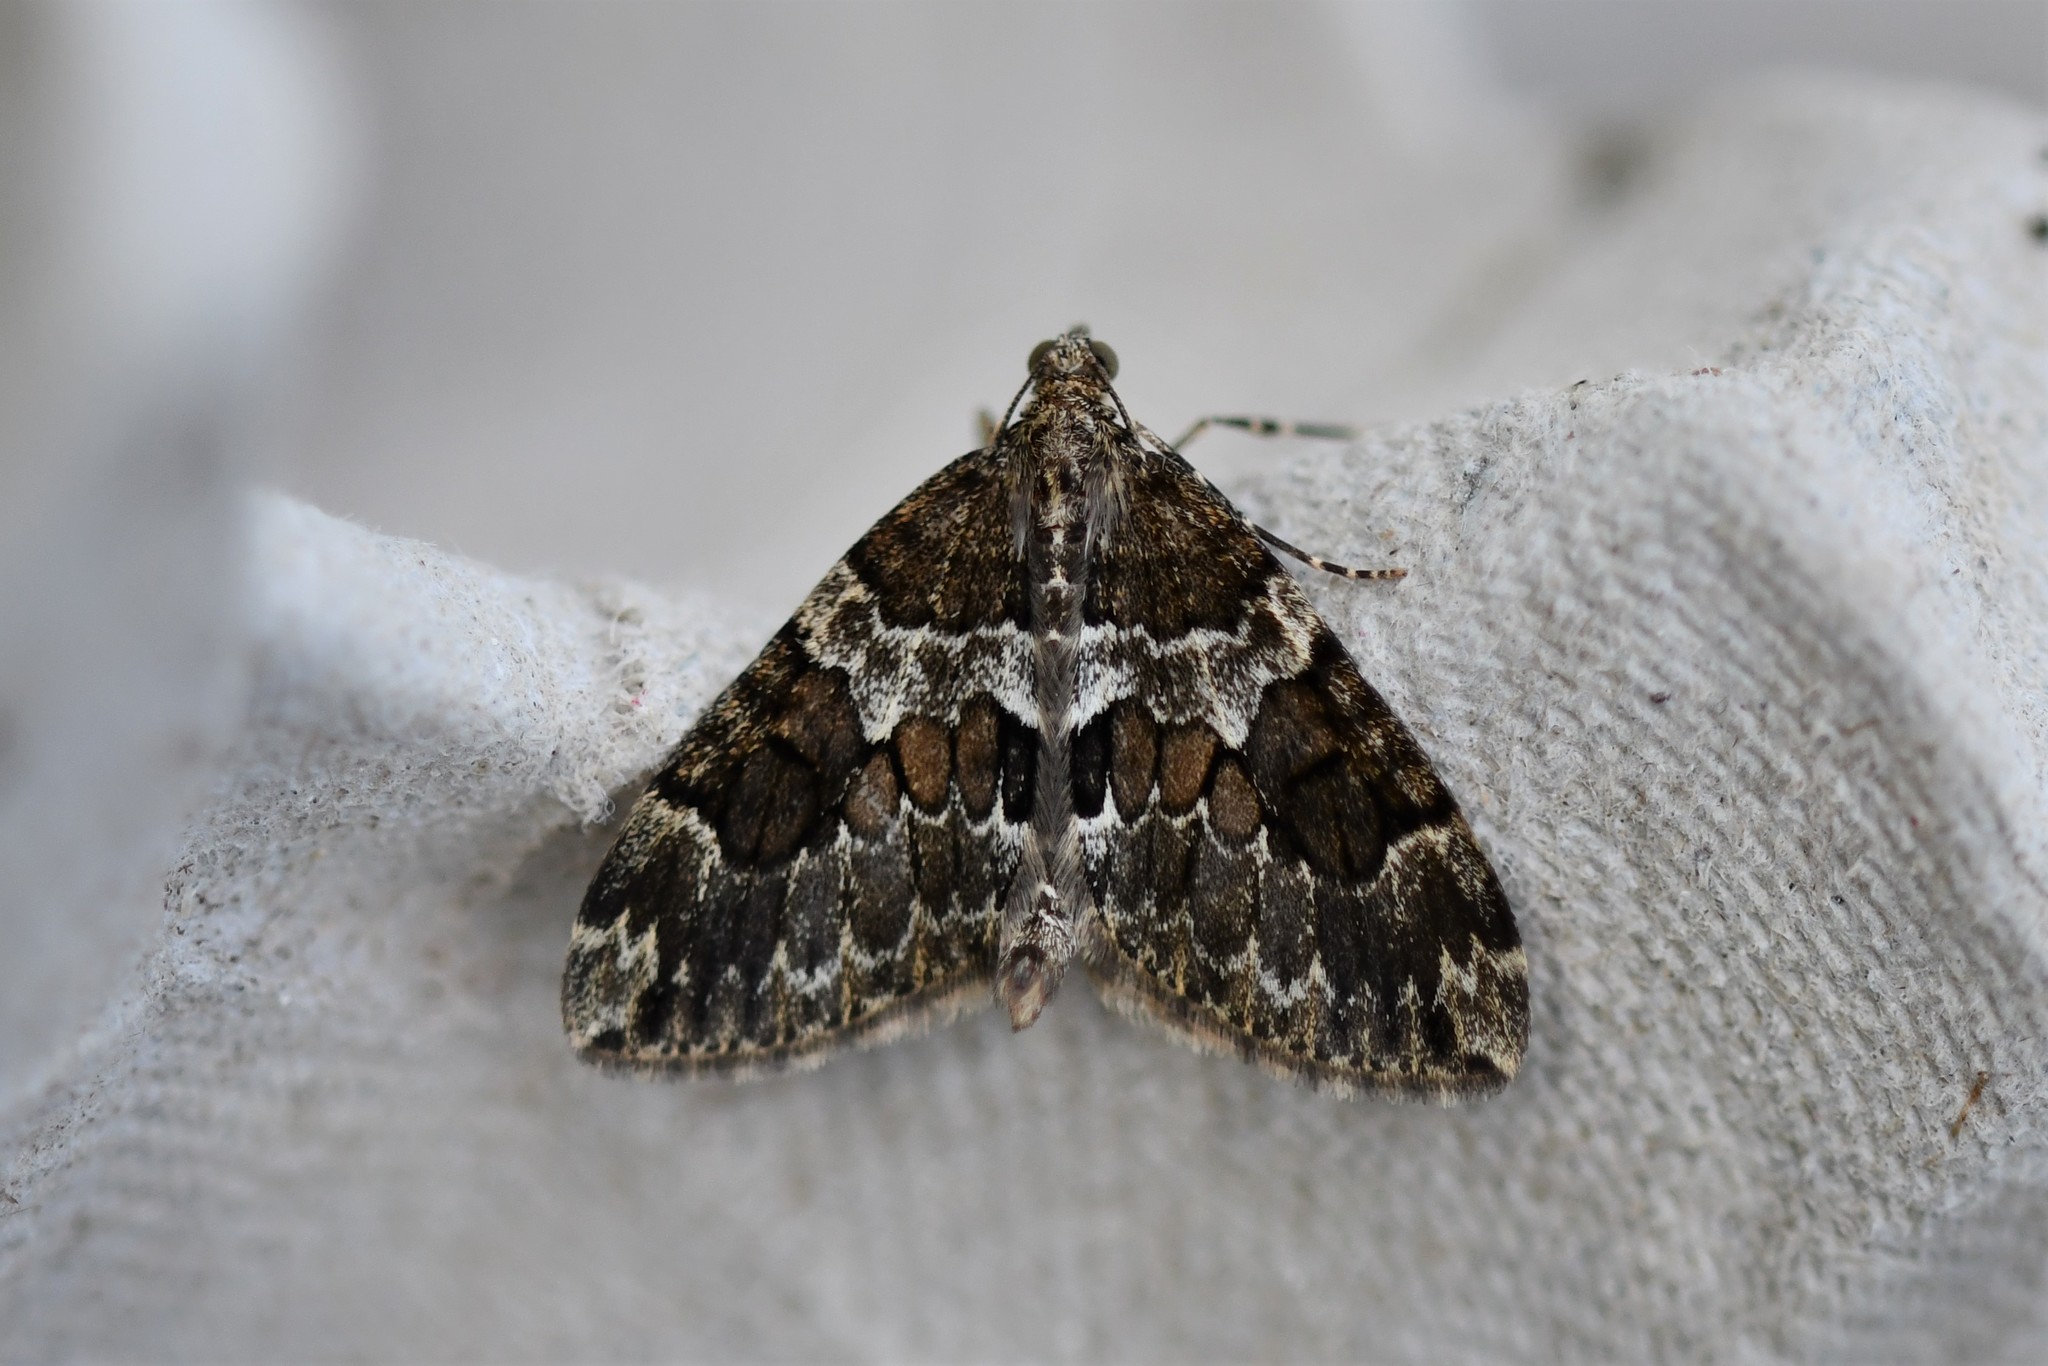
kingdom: Animalia
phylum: Arthropoda
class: Insecta
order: Lepidoptera
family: Geometridae
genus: Thera
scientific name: Thera britannica
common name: Spruce carpet
